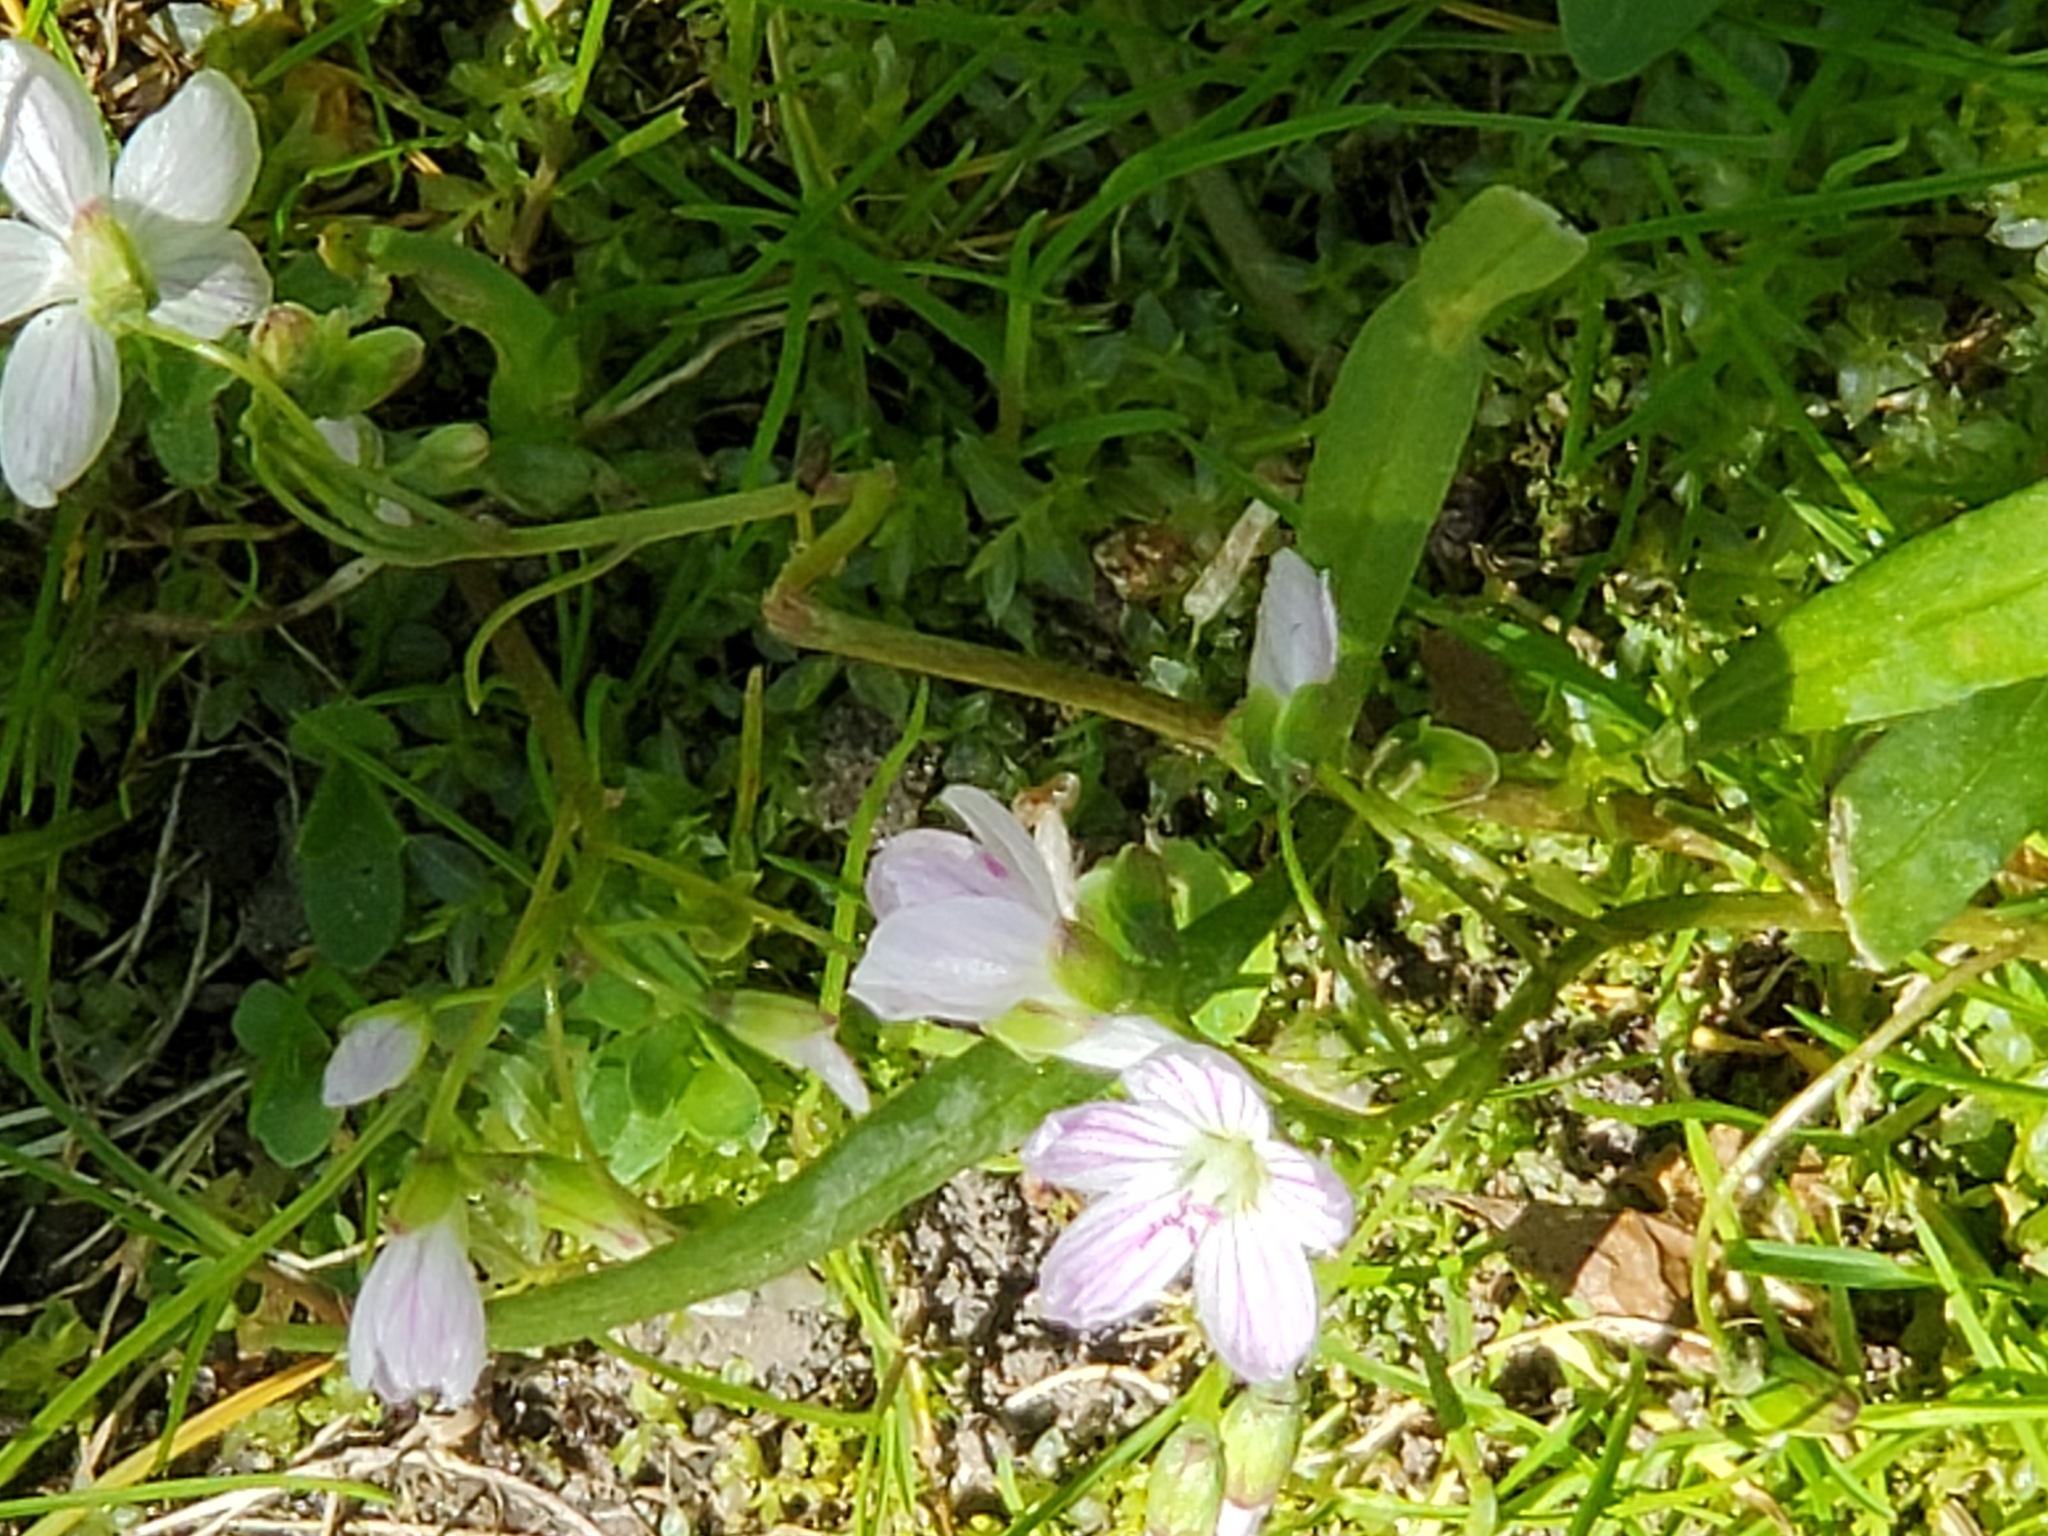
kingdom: Plantae
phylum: Tracheophyta
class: Magnoliopsida
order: Caryophyllales
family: Montiaceae
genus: Claytonia
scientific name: Claytonia virginica
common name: Virginia springbeauty
